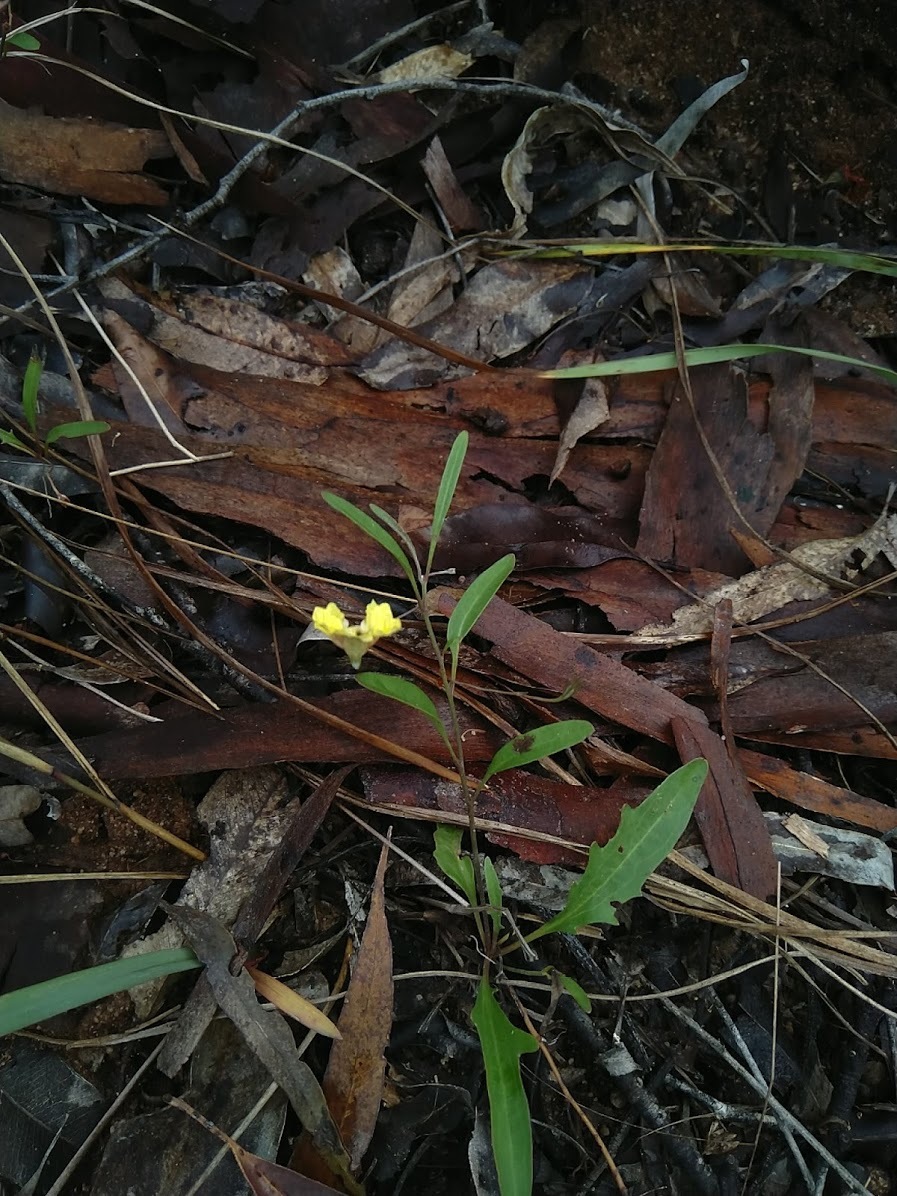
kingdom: Plantae
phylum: Tracheophyta
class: Magnoliopsida
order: Asterales
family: Goodeniaceae
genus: Goodenia
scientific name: Goodenia delicata
